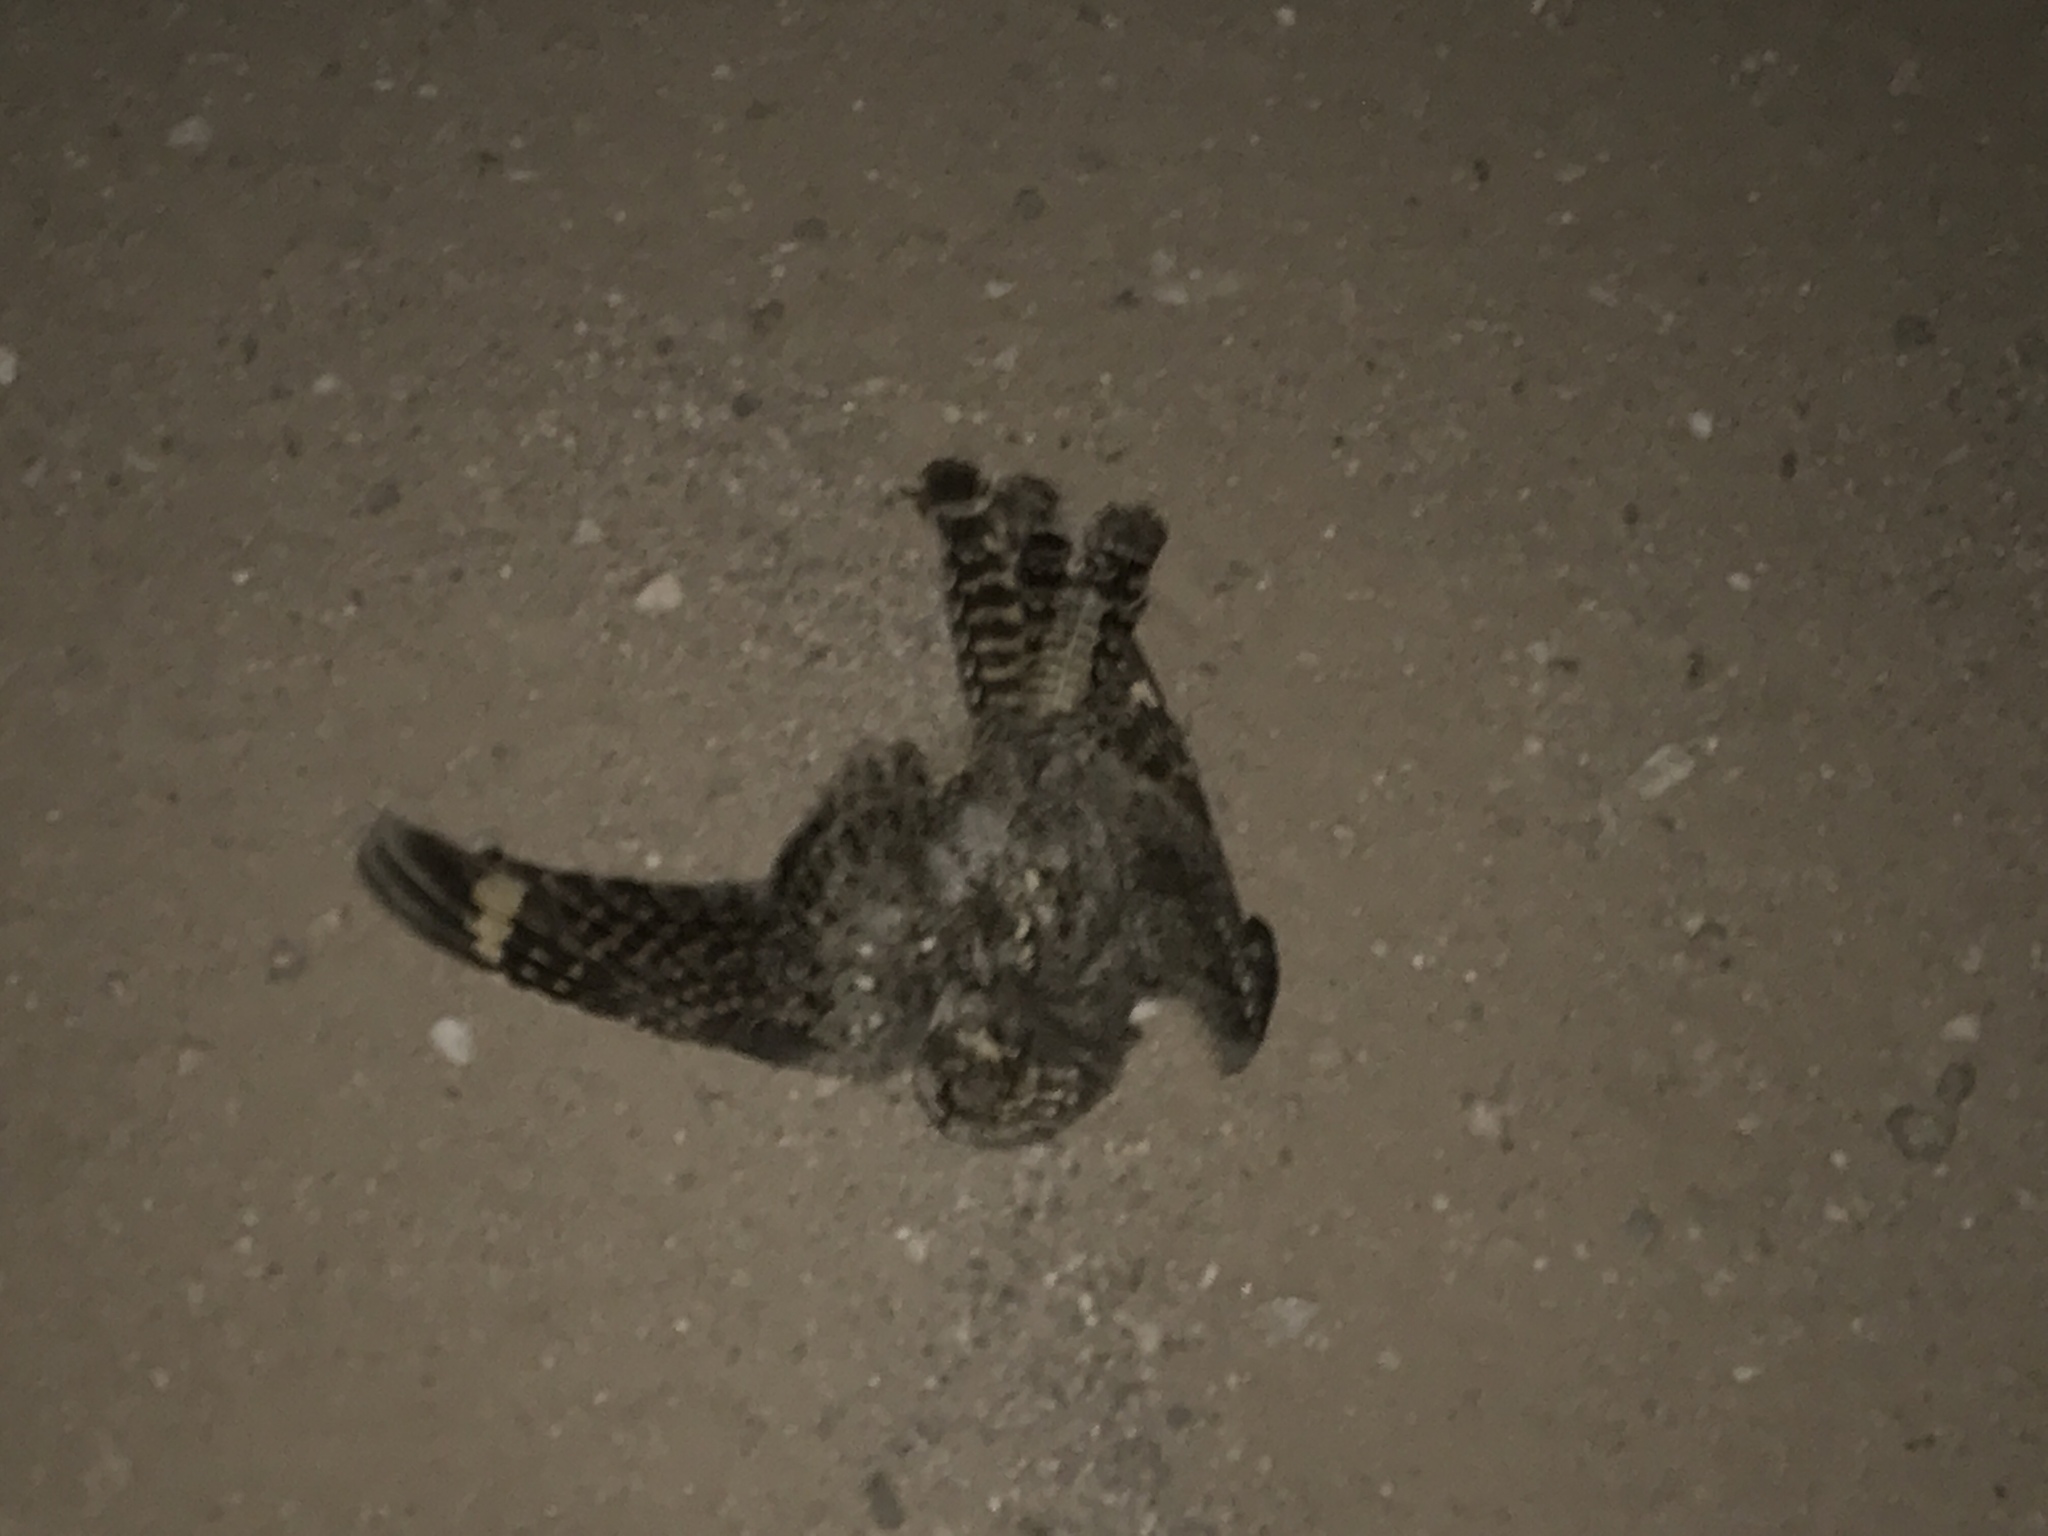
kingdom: Animalia
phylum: Chordata
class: Aves
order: Caprimulgiformes
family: Caprimulgidae
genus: Chordeiles
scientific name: Chordeiles acutipennis
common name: Lesser nighthawk
